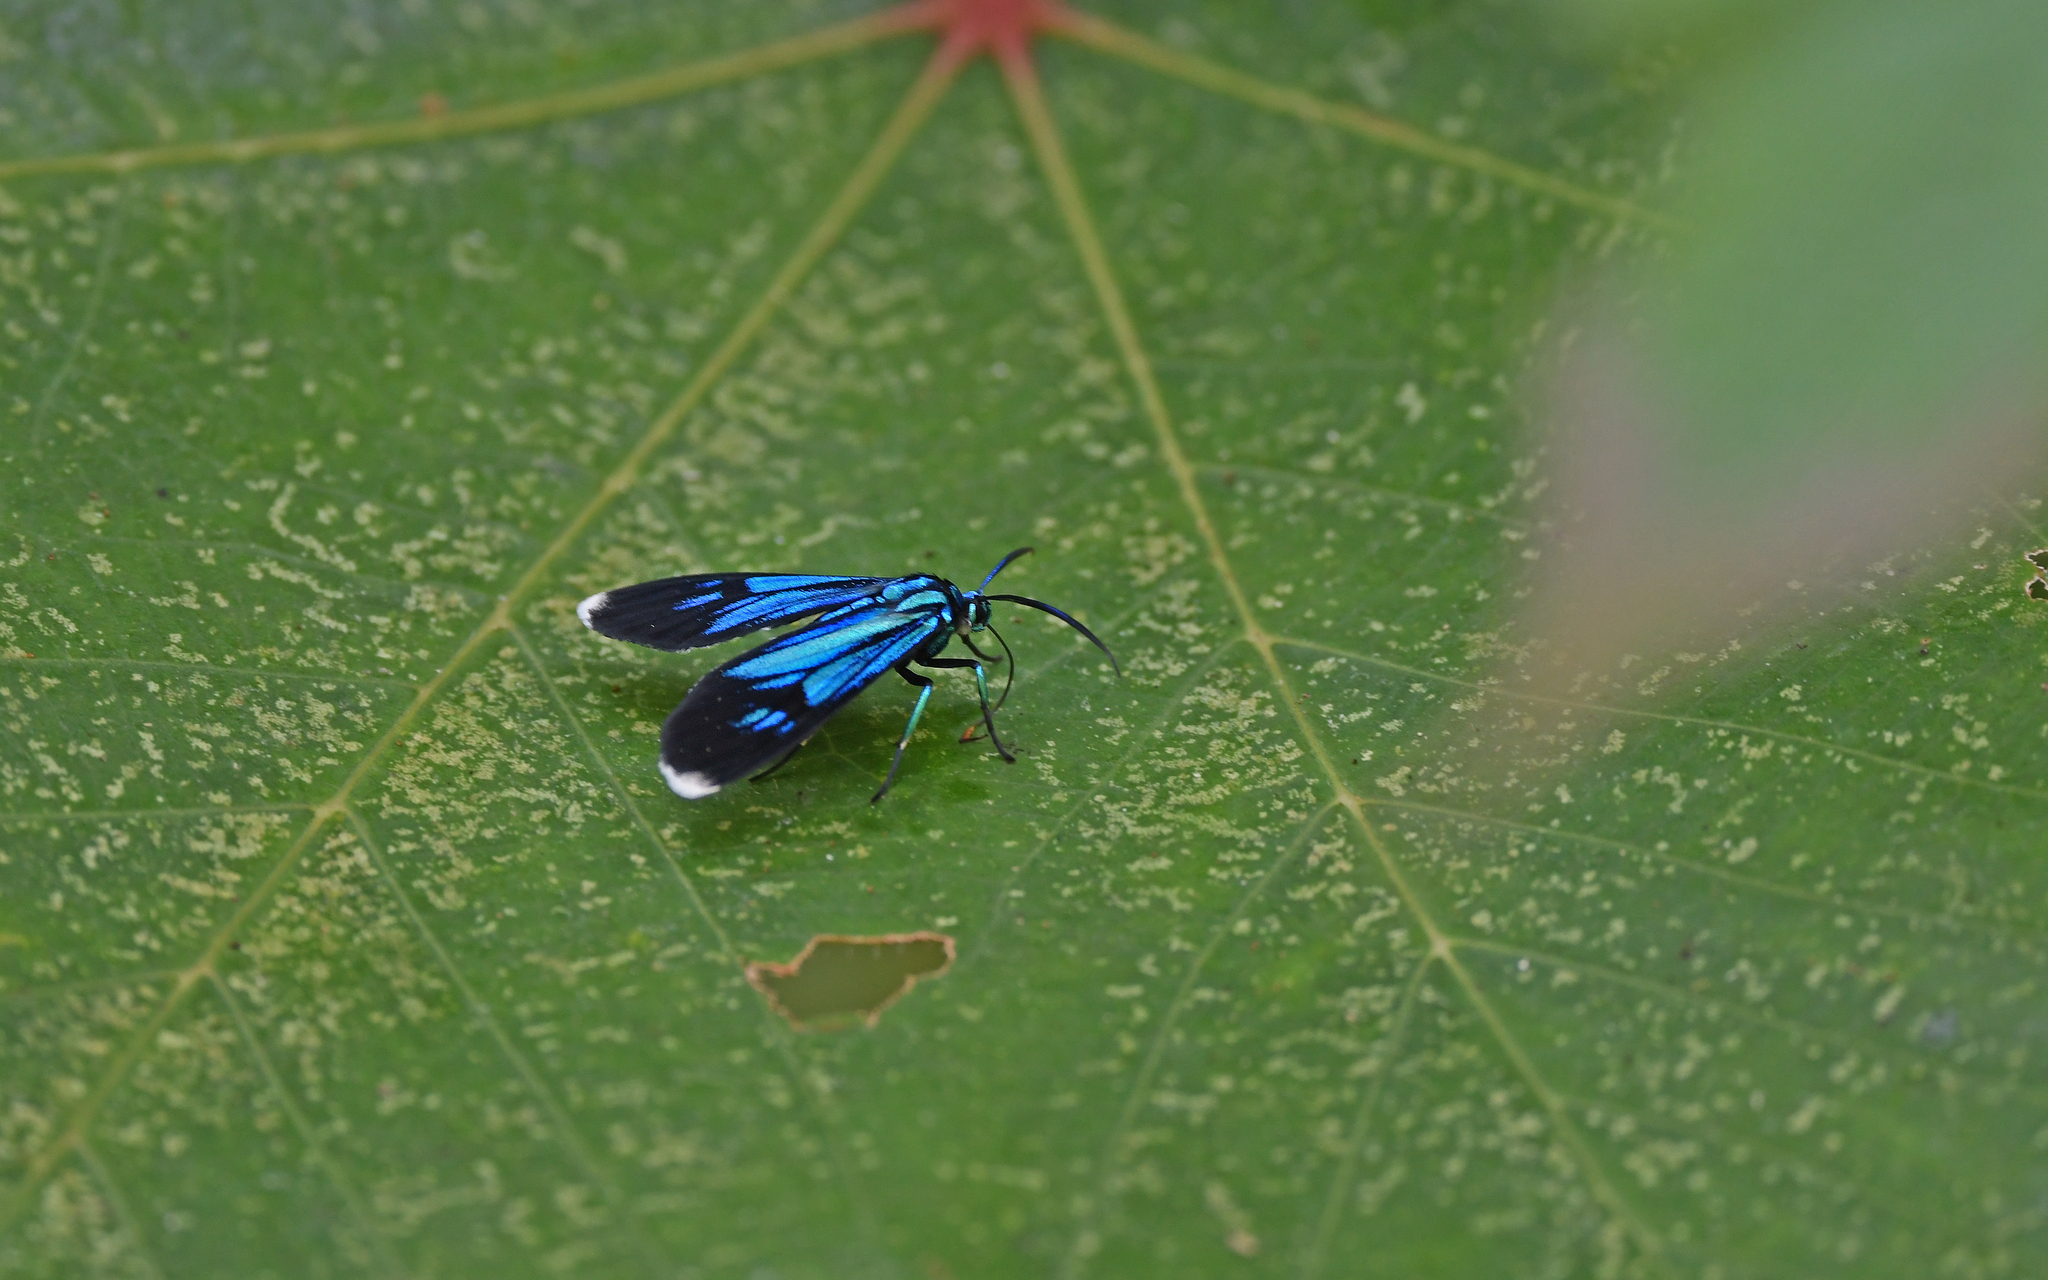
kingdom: Animalia
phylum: Arthropoda
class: Insecta
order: Lepidoptera
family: Erebidae
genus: Uranophora
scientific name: Uranophora superba
